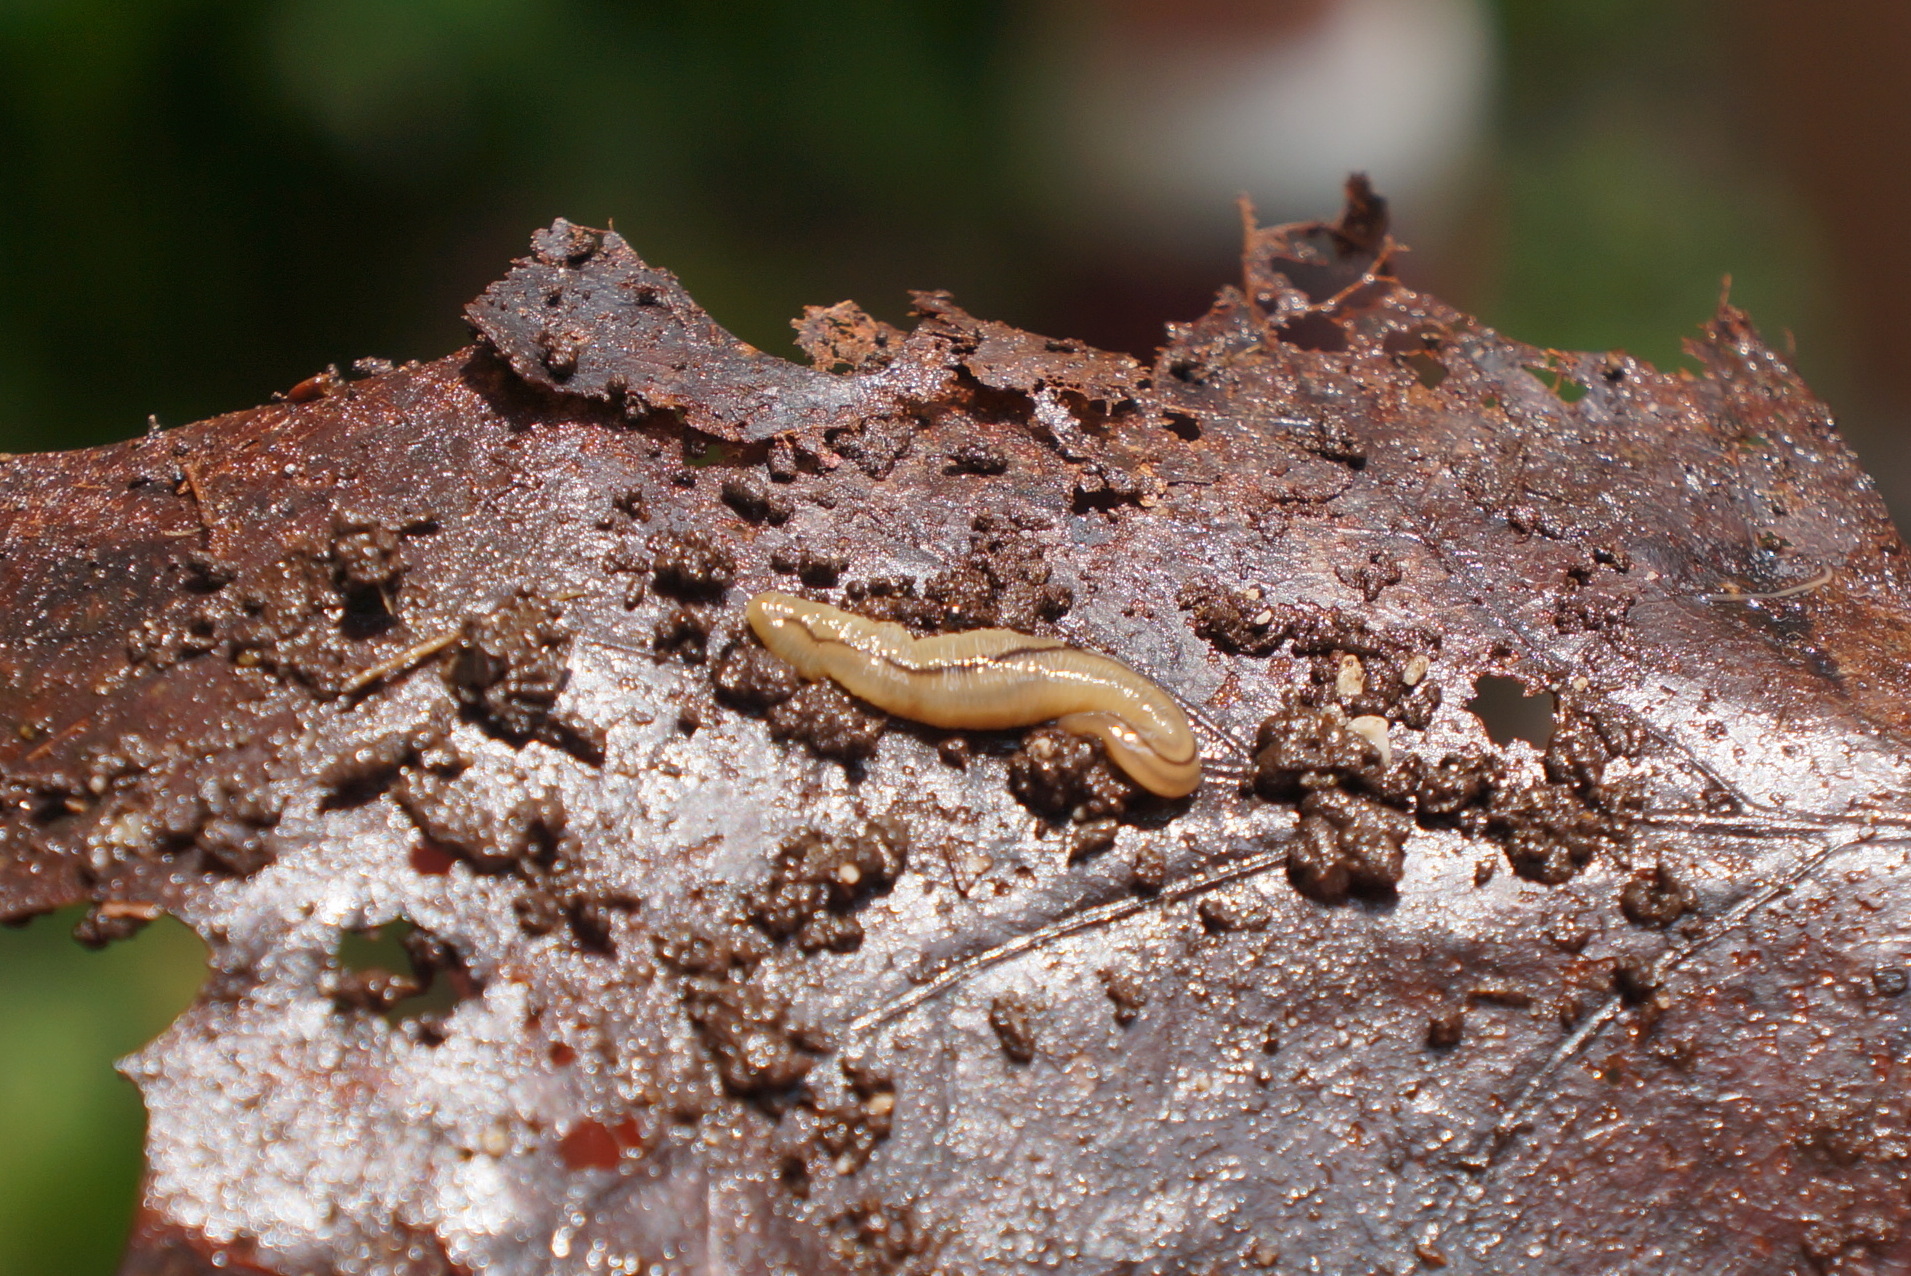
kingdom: Animalia
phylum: Platyhelminthes
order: Tricladida
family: Geoplanidae
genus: Bipalium
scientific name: Bipalium adventitium
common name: Land planarian
